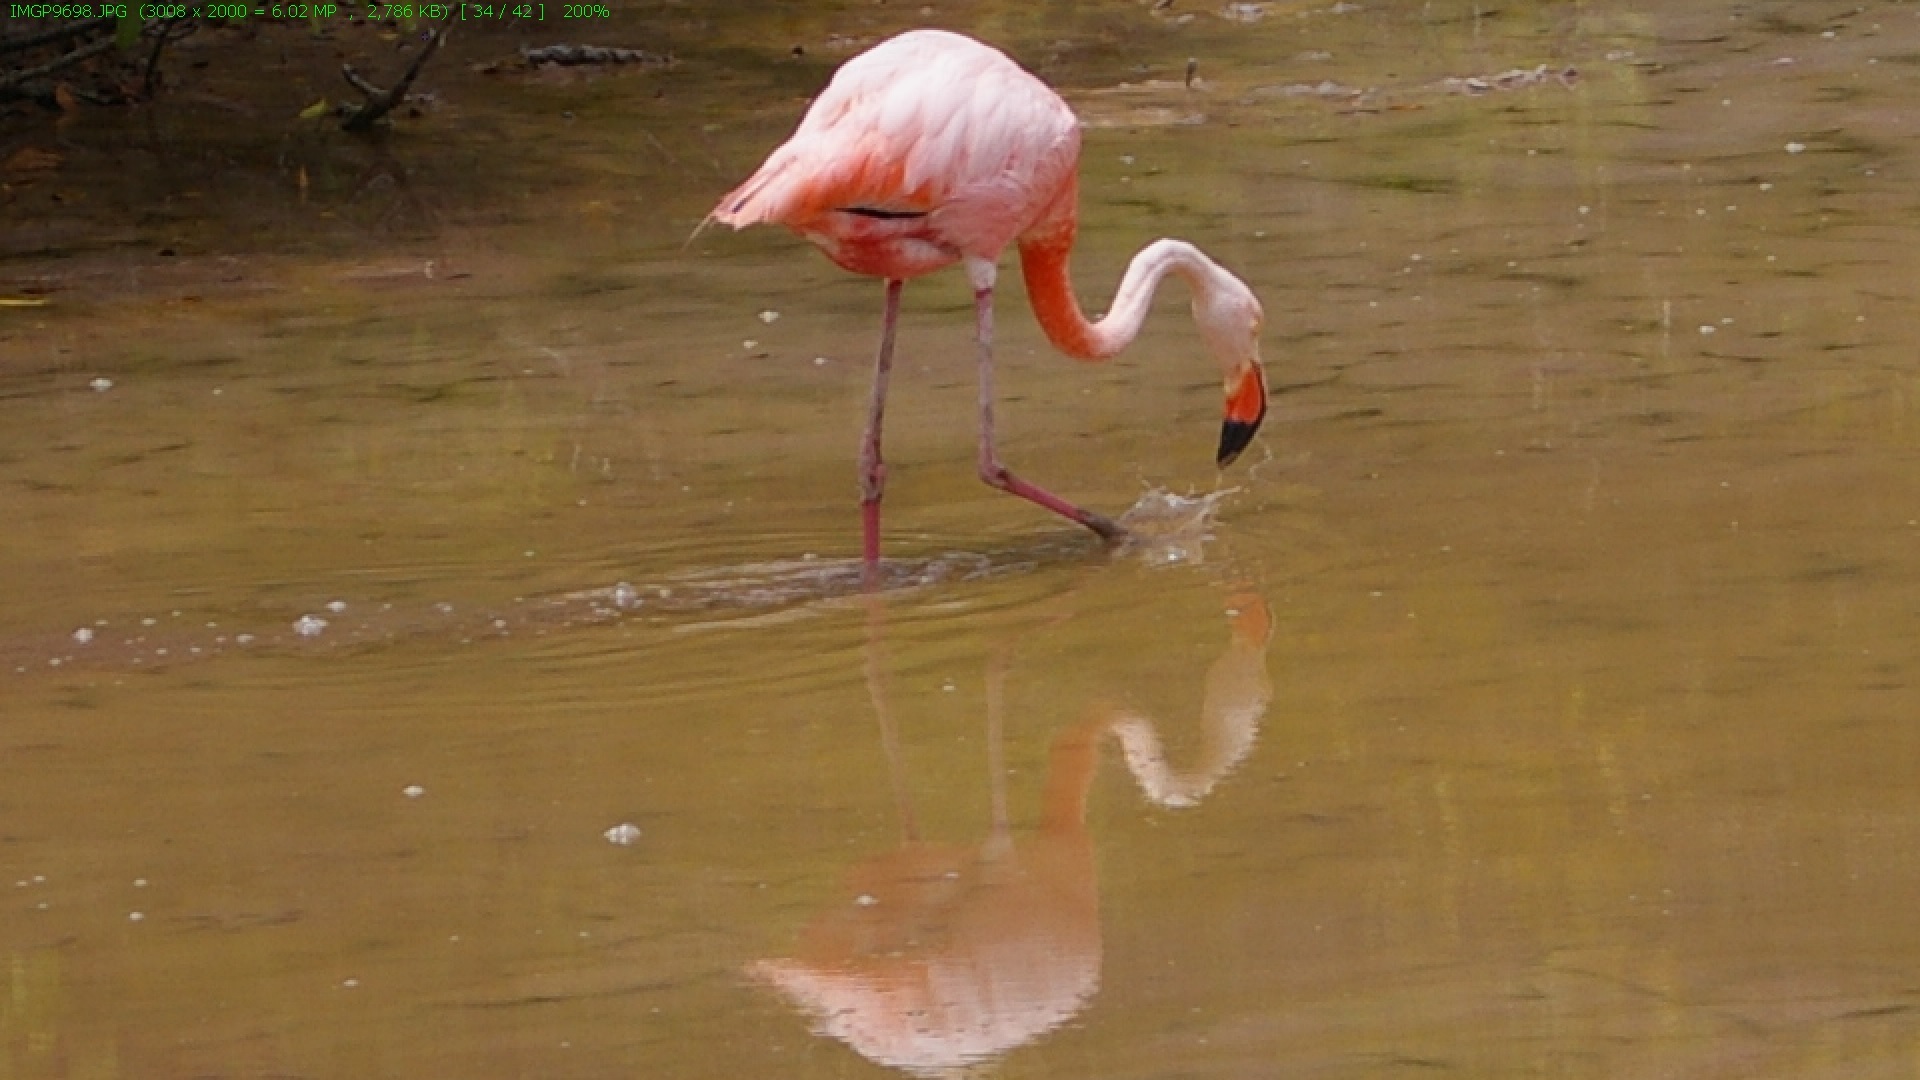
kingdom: Animalia
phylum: Chordata
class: Aves
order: Phoenicopteriformes
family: Phoenicopteridae
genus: Phoenicopterus
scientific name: Phoenicopterus ruber
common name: American flamingo
